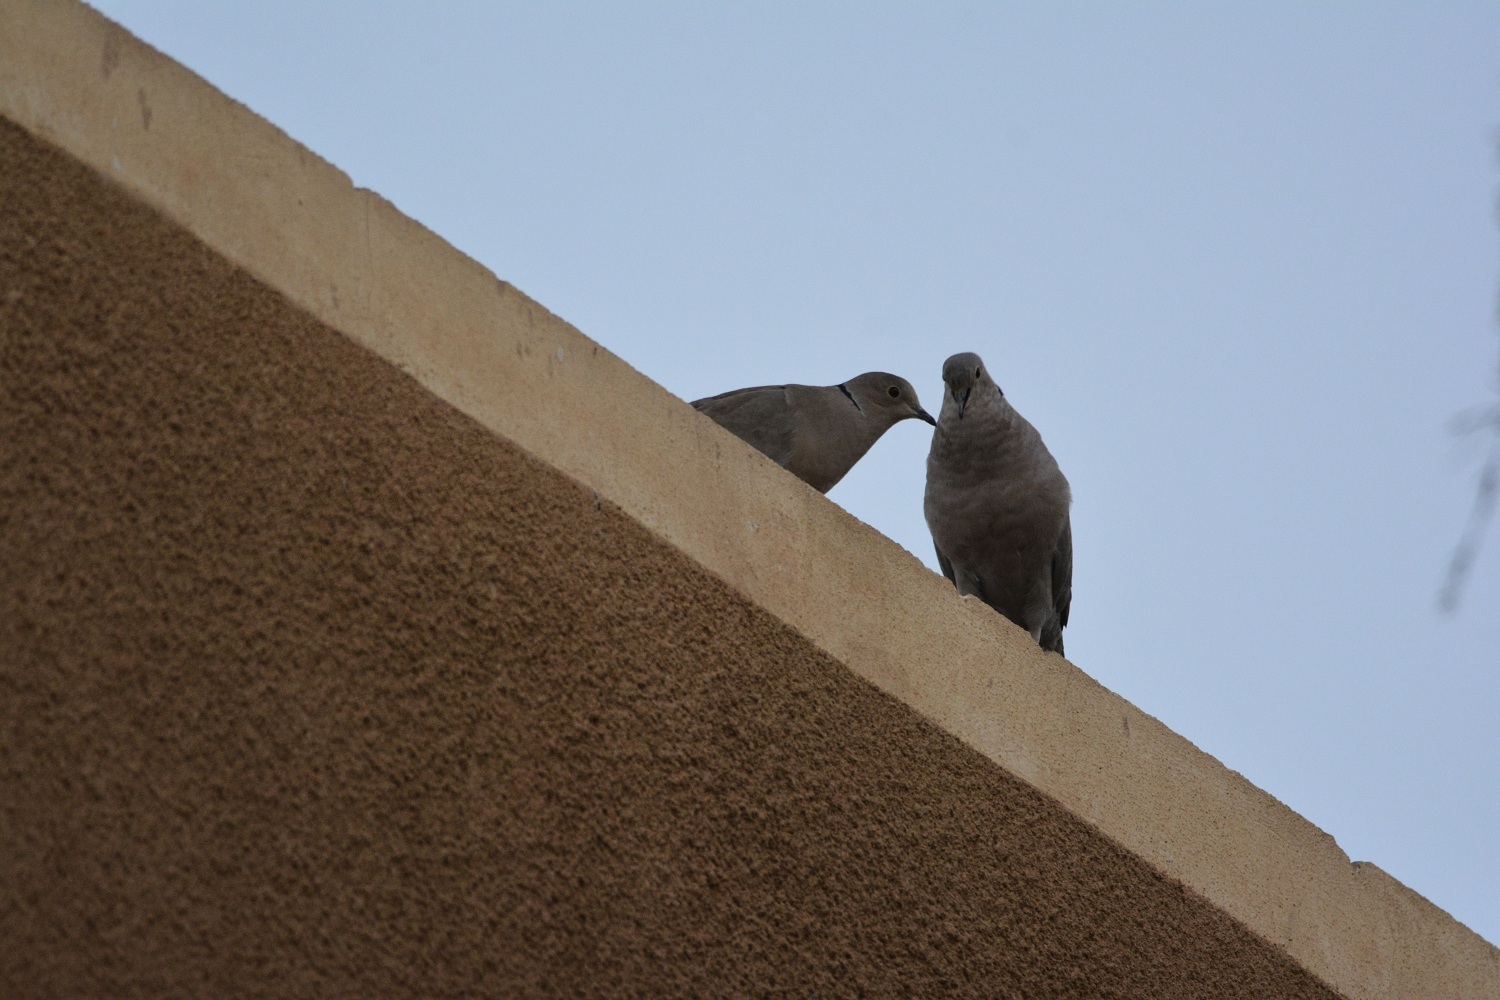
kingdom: Animalia
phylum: Chordata
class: Aves
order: Columbiformes
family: Columbidae
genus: Streptopelia
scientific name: Streptopelia decaocto
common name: Eurasian collared dove
